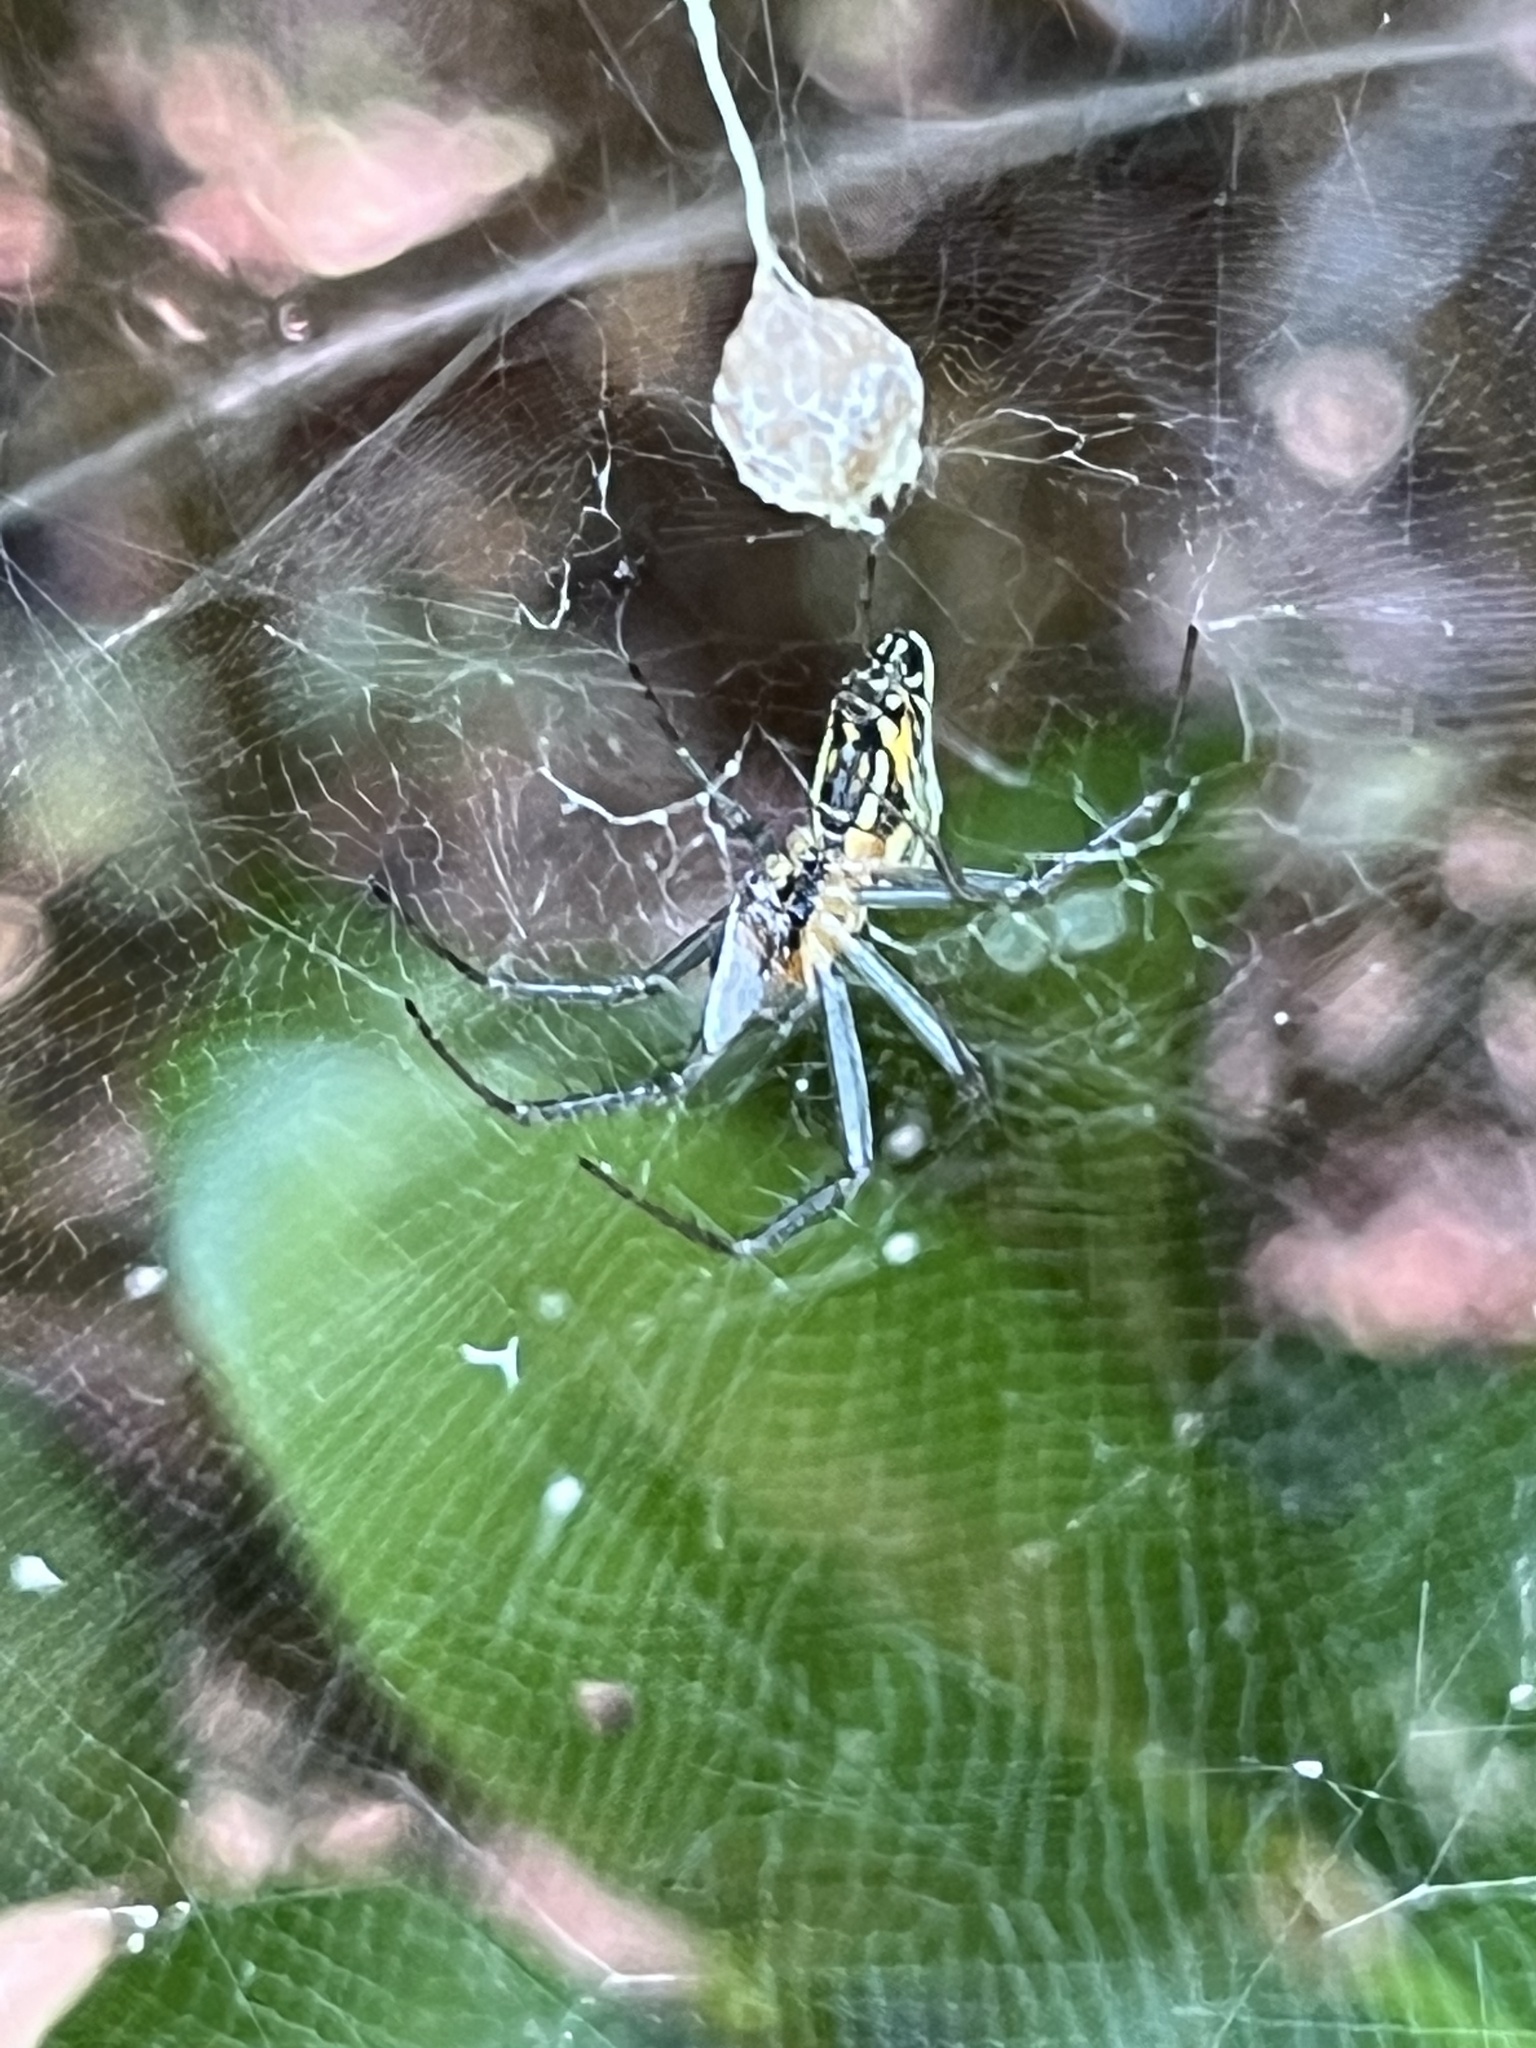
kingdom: Animalia
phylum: Arthropoda
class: Arachnida
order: Araneae
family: Araneidae
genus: Mecynogea
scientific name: Mecynogea lemniscata
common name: Orb weavers
